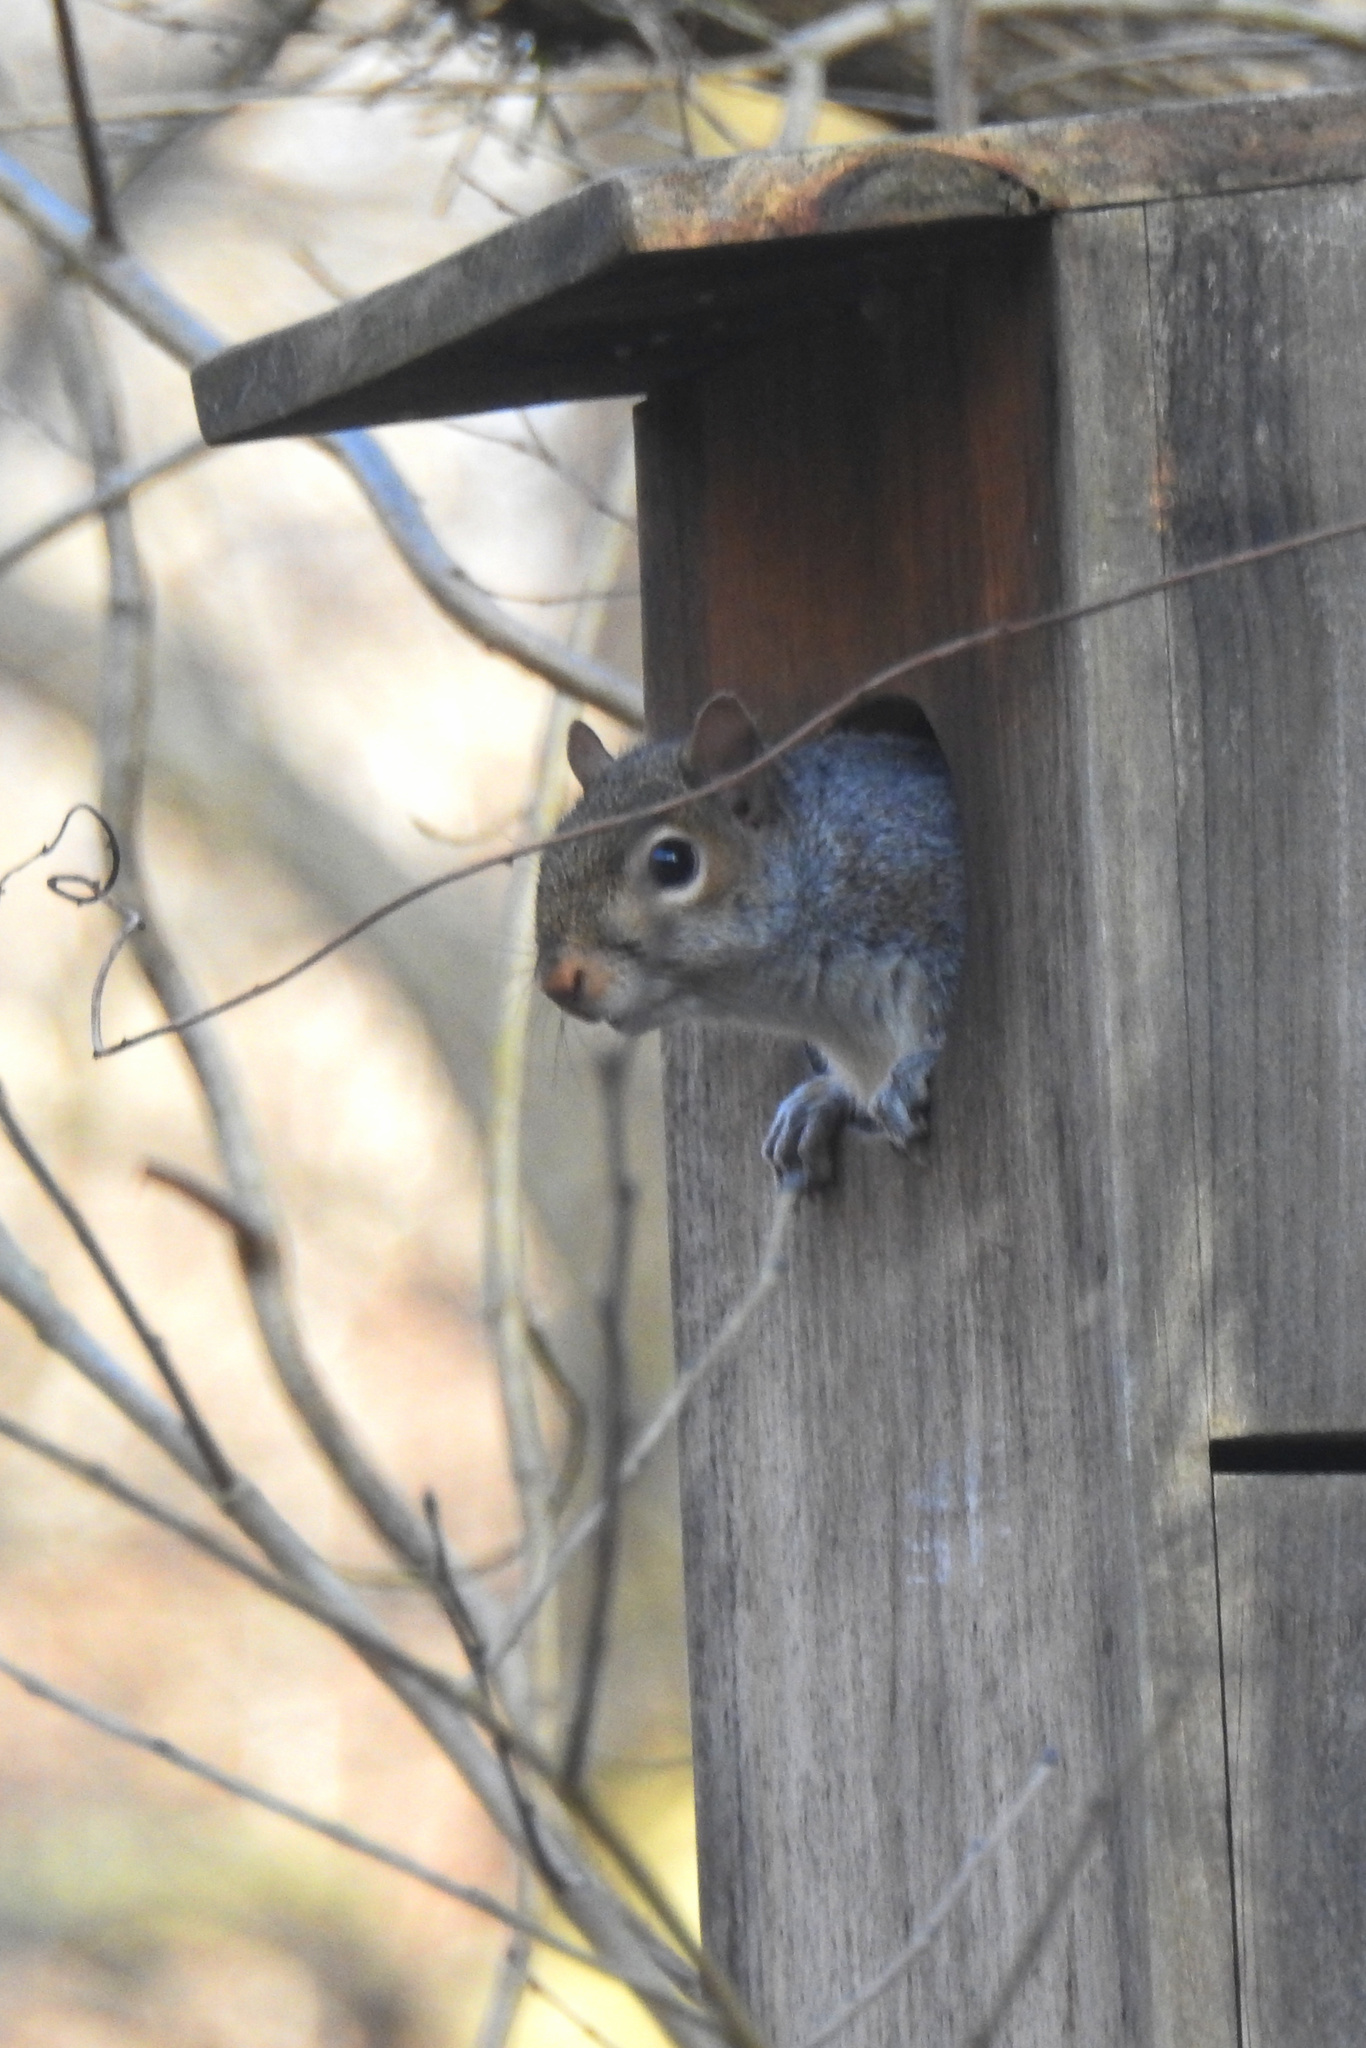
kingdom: Animalia
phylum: Chordata
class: Mammalia
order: Rodentia
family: Sciuridae
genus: Sciurus
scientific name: Sciurus carolinensis
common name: Eastern gray squirrel
